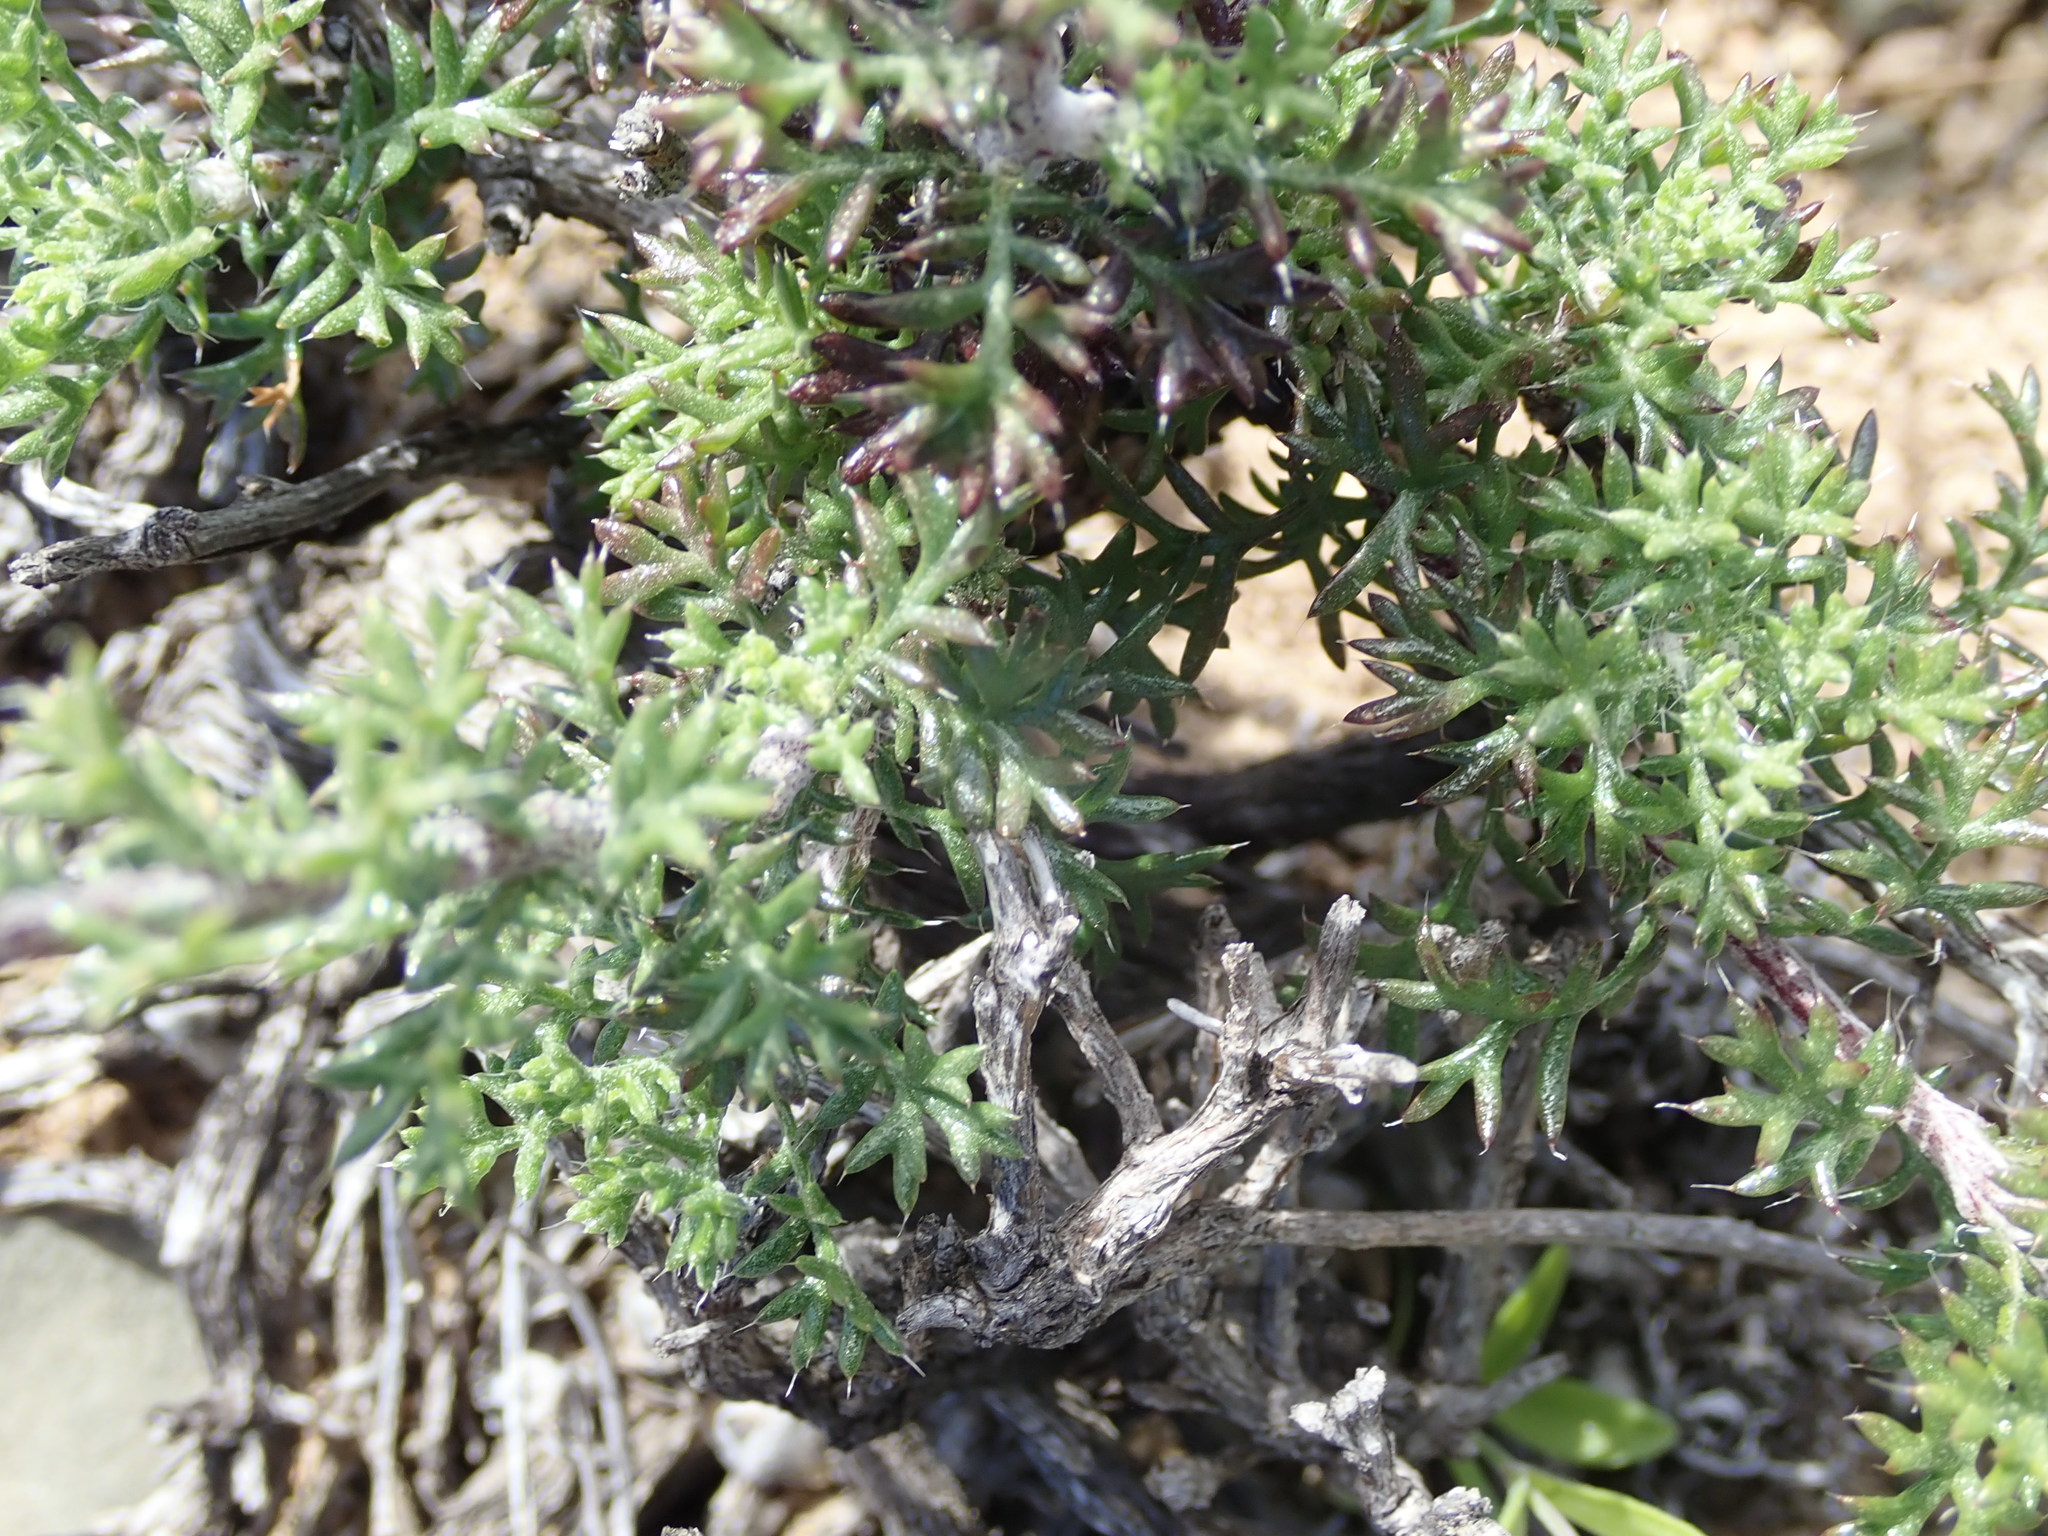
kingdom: Plantae
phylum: Tracheophyta
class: Magnoliopsida
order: Asterales
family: Asteraceae
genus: Ursinia
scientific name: Ursinia pilifera
